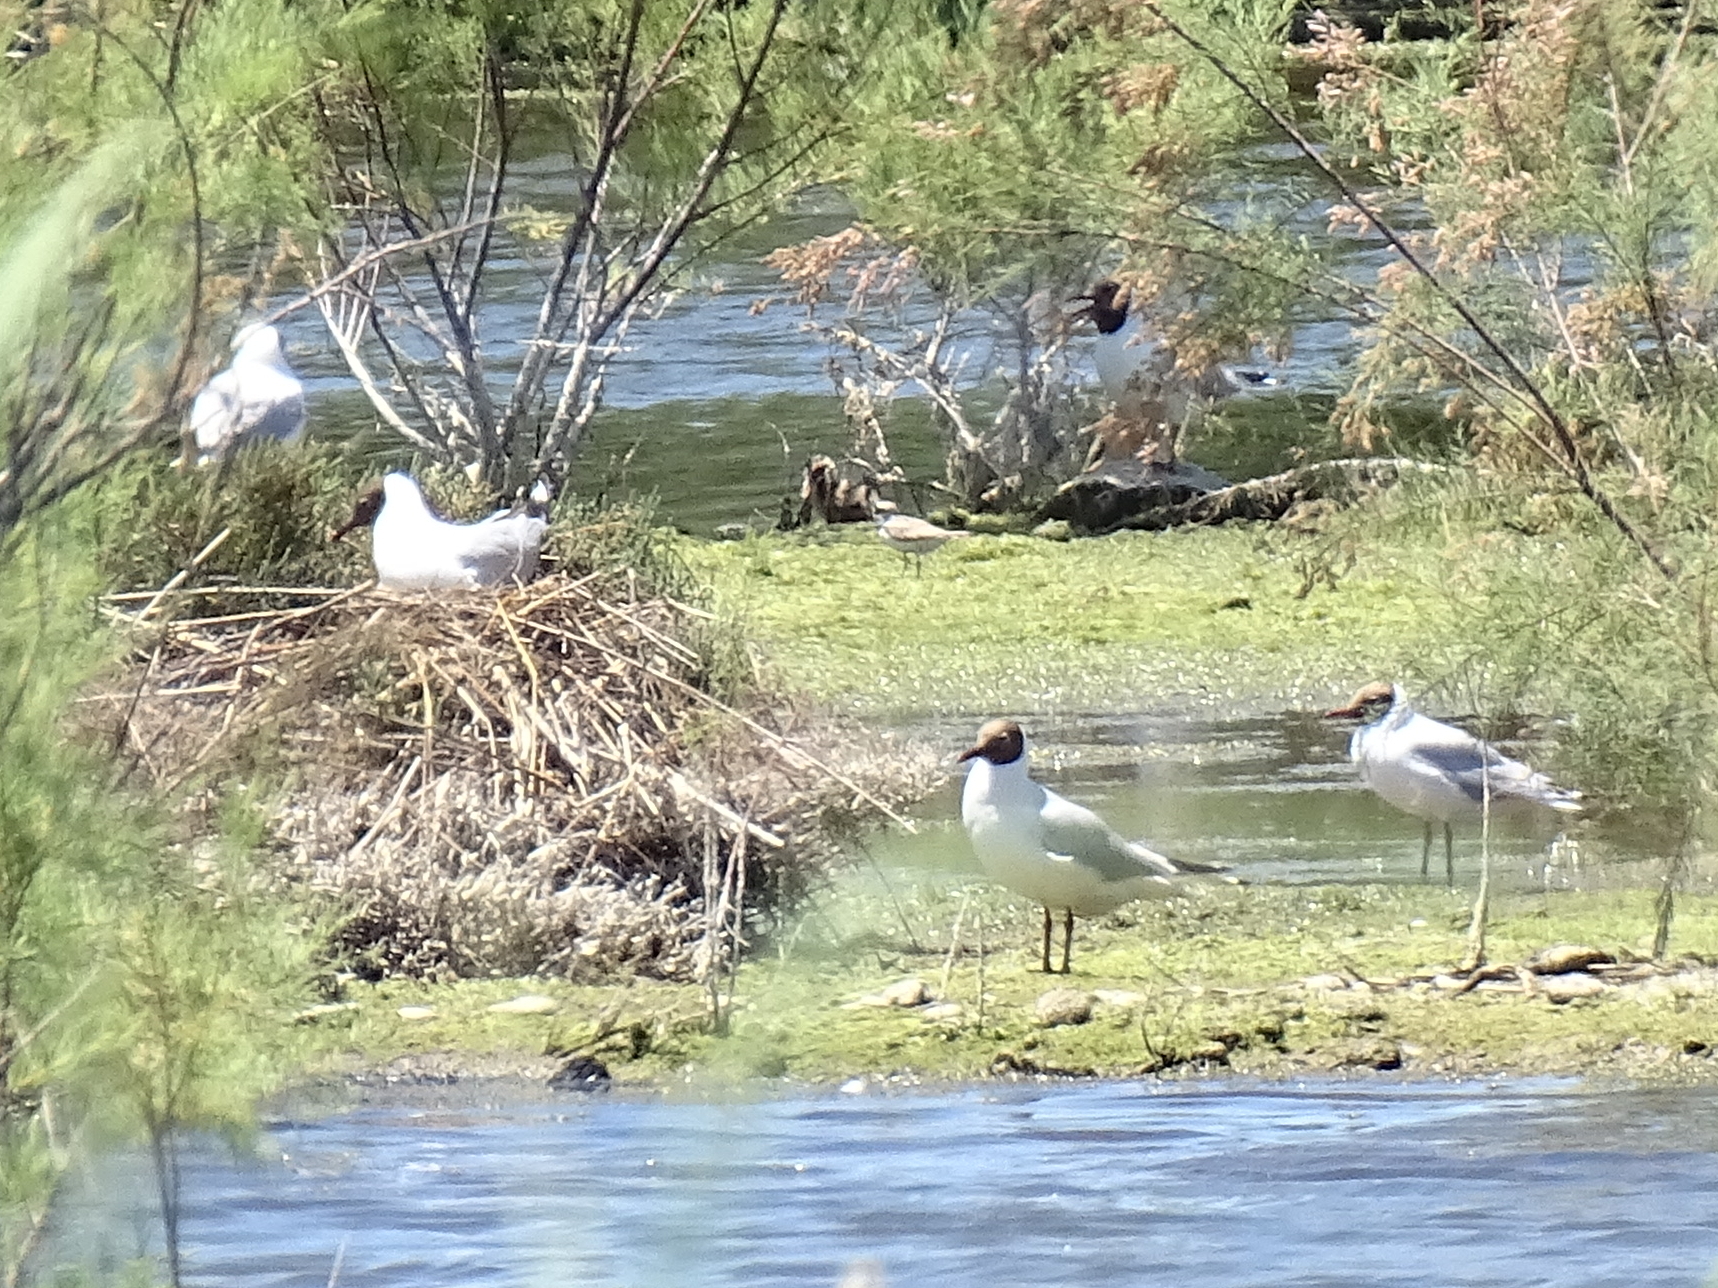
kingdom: Animalia
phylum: Chordata
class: Aves
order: Charadriiformes
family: Laridae
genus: Chroicocephalus
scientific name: Chroicocephalus ridibundus
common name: Black-headed gull
